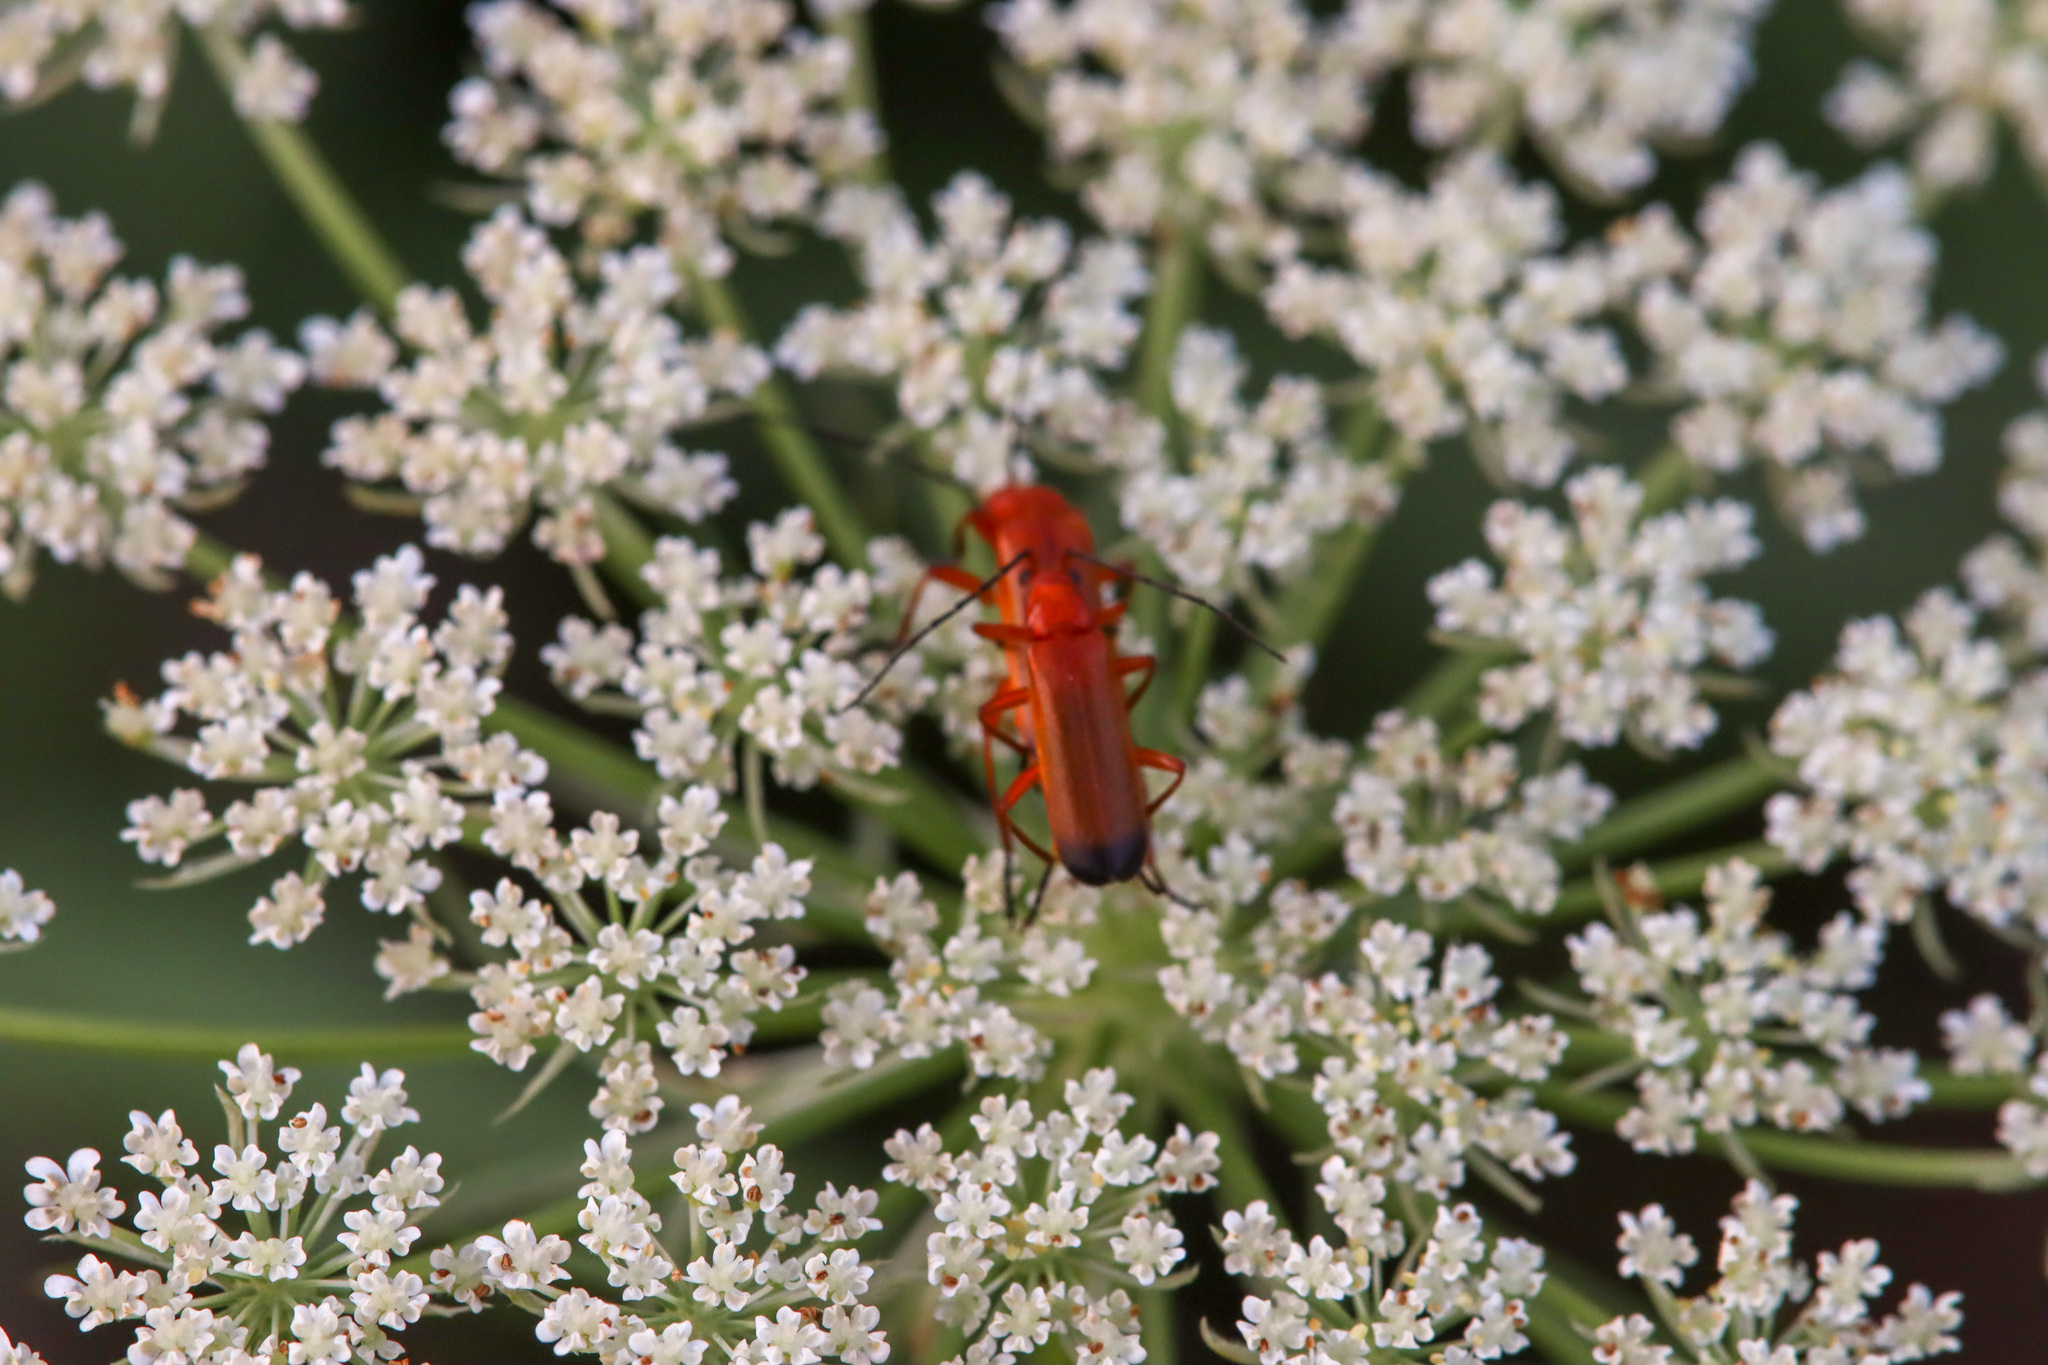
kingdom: Animalia
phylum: Arthropoda
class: Insecta
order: Coleoptera
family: Cantharidae
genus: Rhagonycha
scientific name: Rhagonycha fulva
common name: Common red soldier beetle
